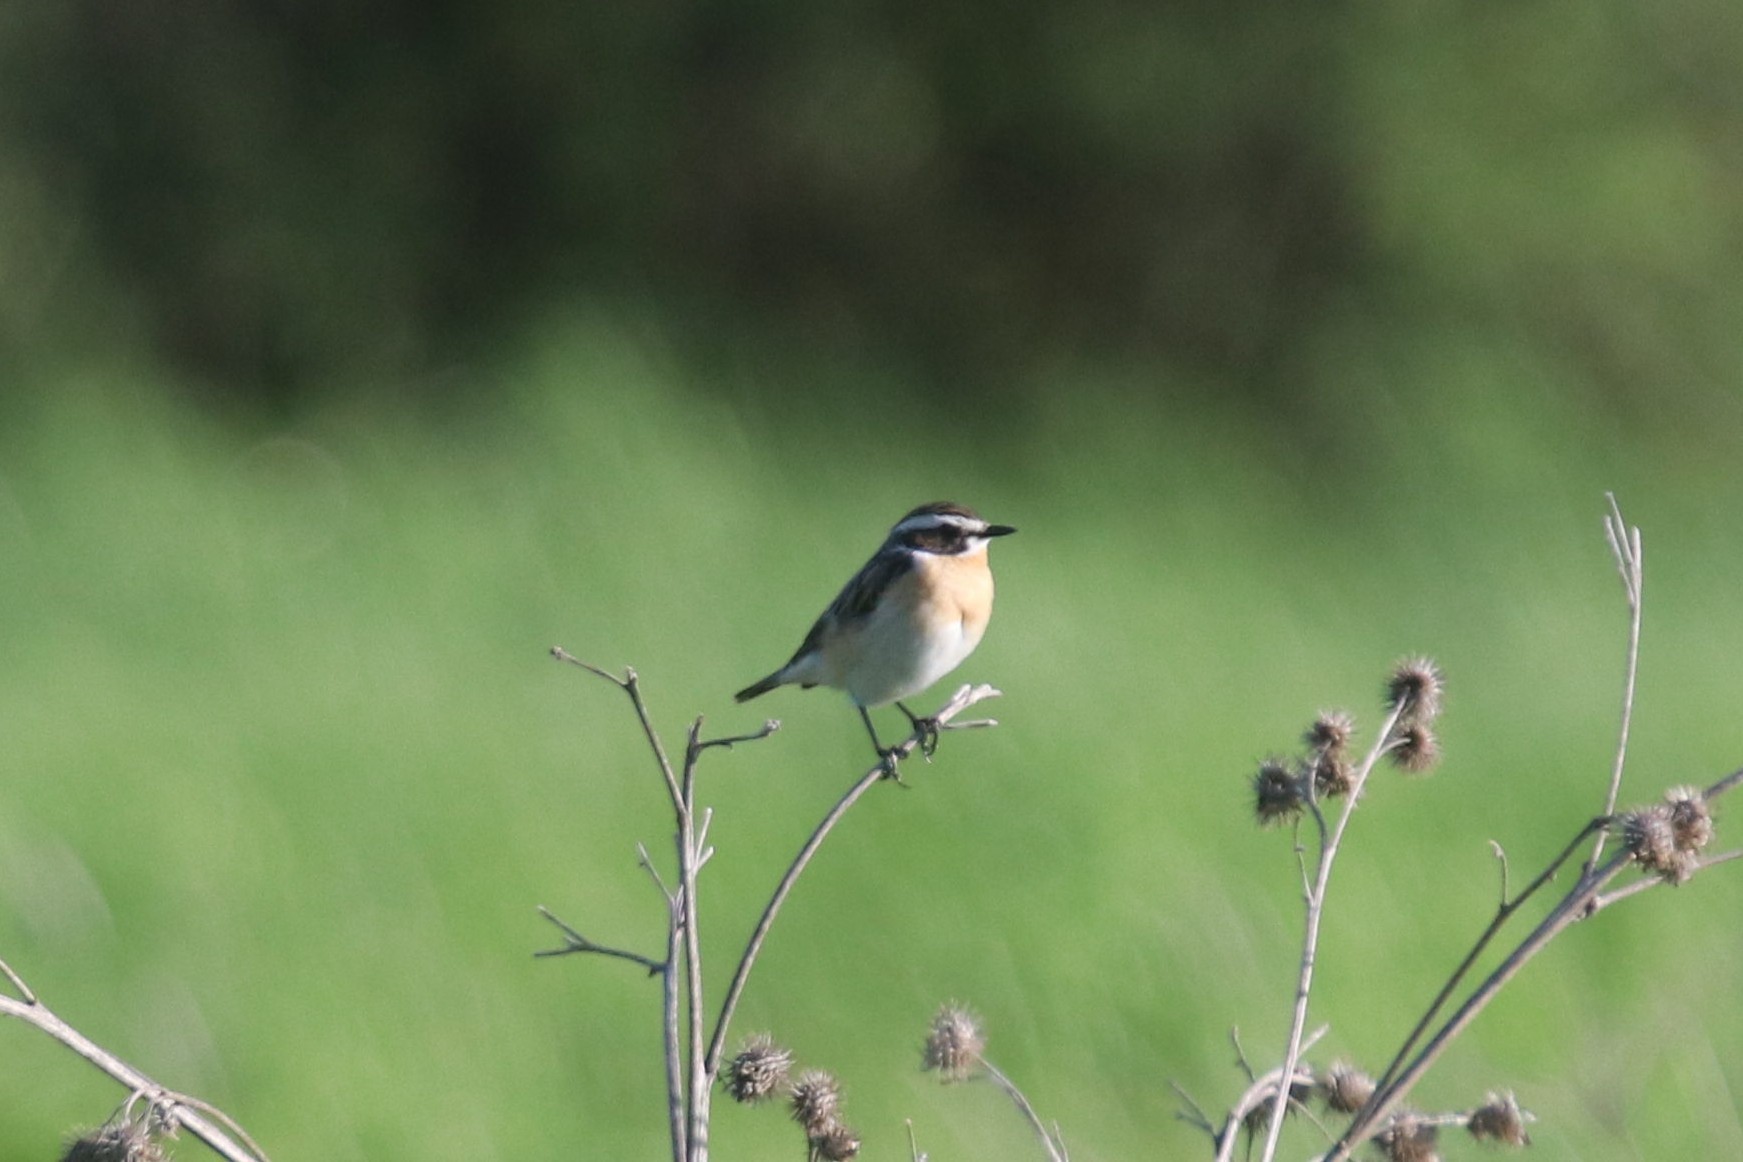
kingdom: Animalia
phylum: Chordata
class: Aves
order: Passeriformes
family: Muscicapidae
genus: Saxicola
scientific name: Saxicola rubetra
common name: Whinchat
